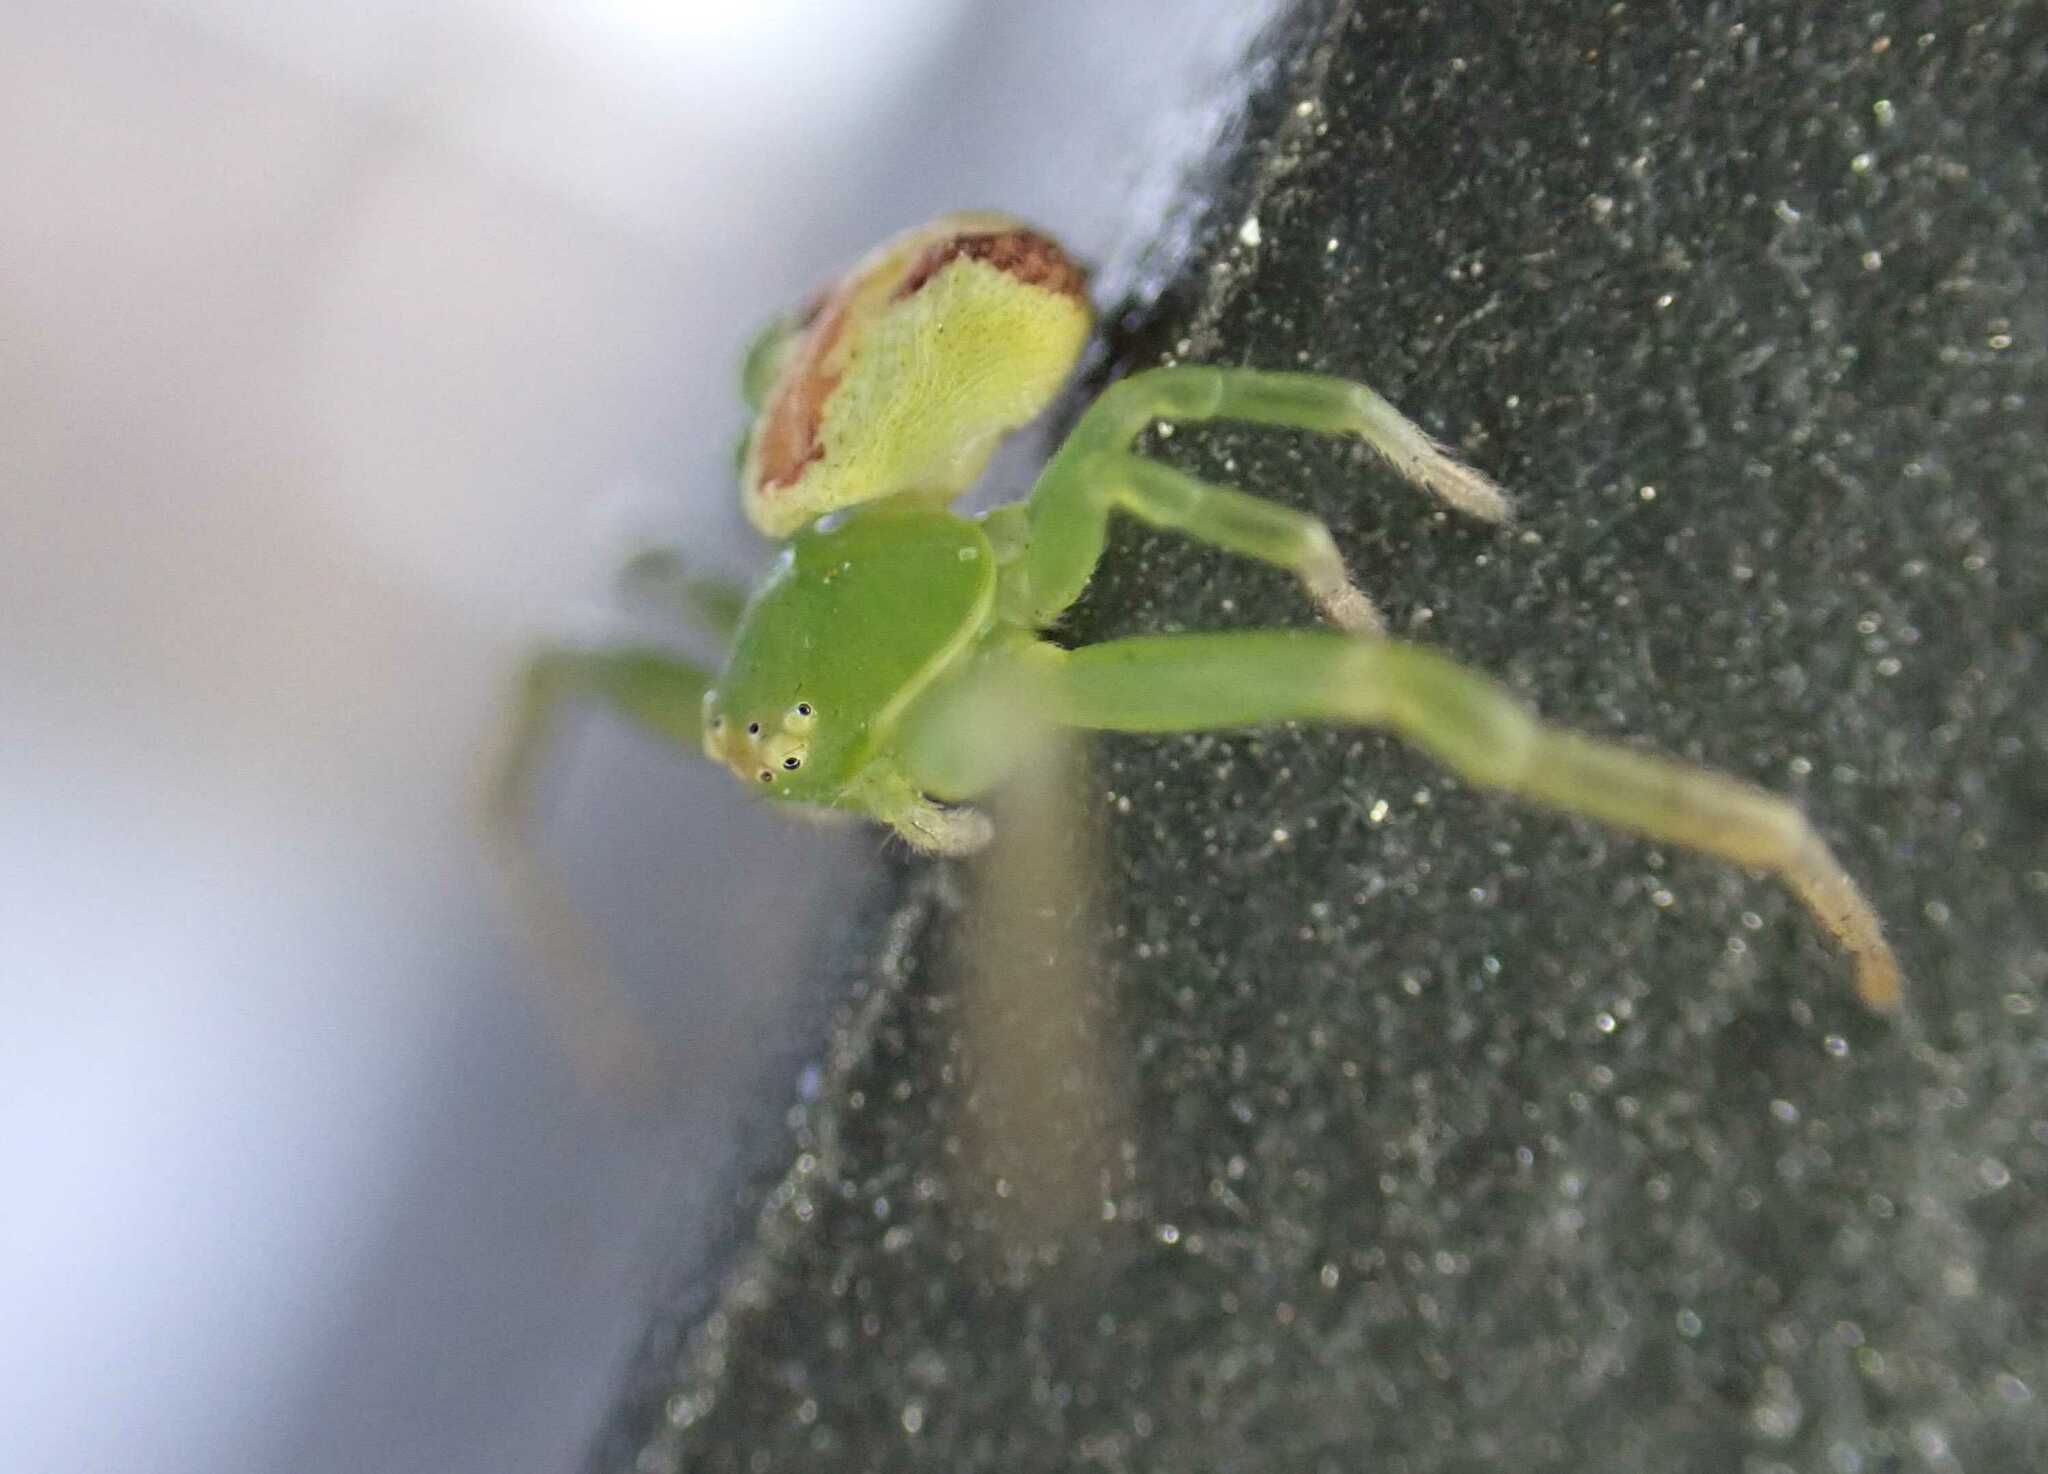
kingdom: Animalia
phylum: Arthropoda
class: Arachnida
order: Araneae
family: Thomisidae
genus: Ebrechtella
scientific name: Ebrechtella tricuspidata
